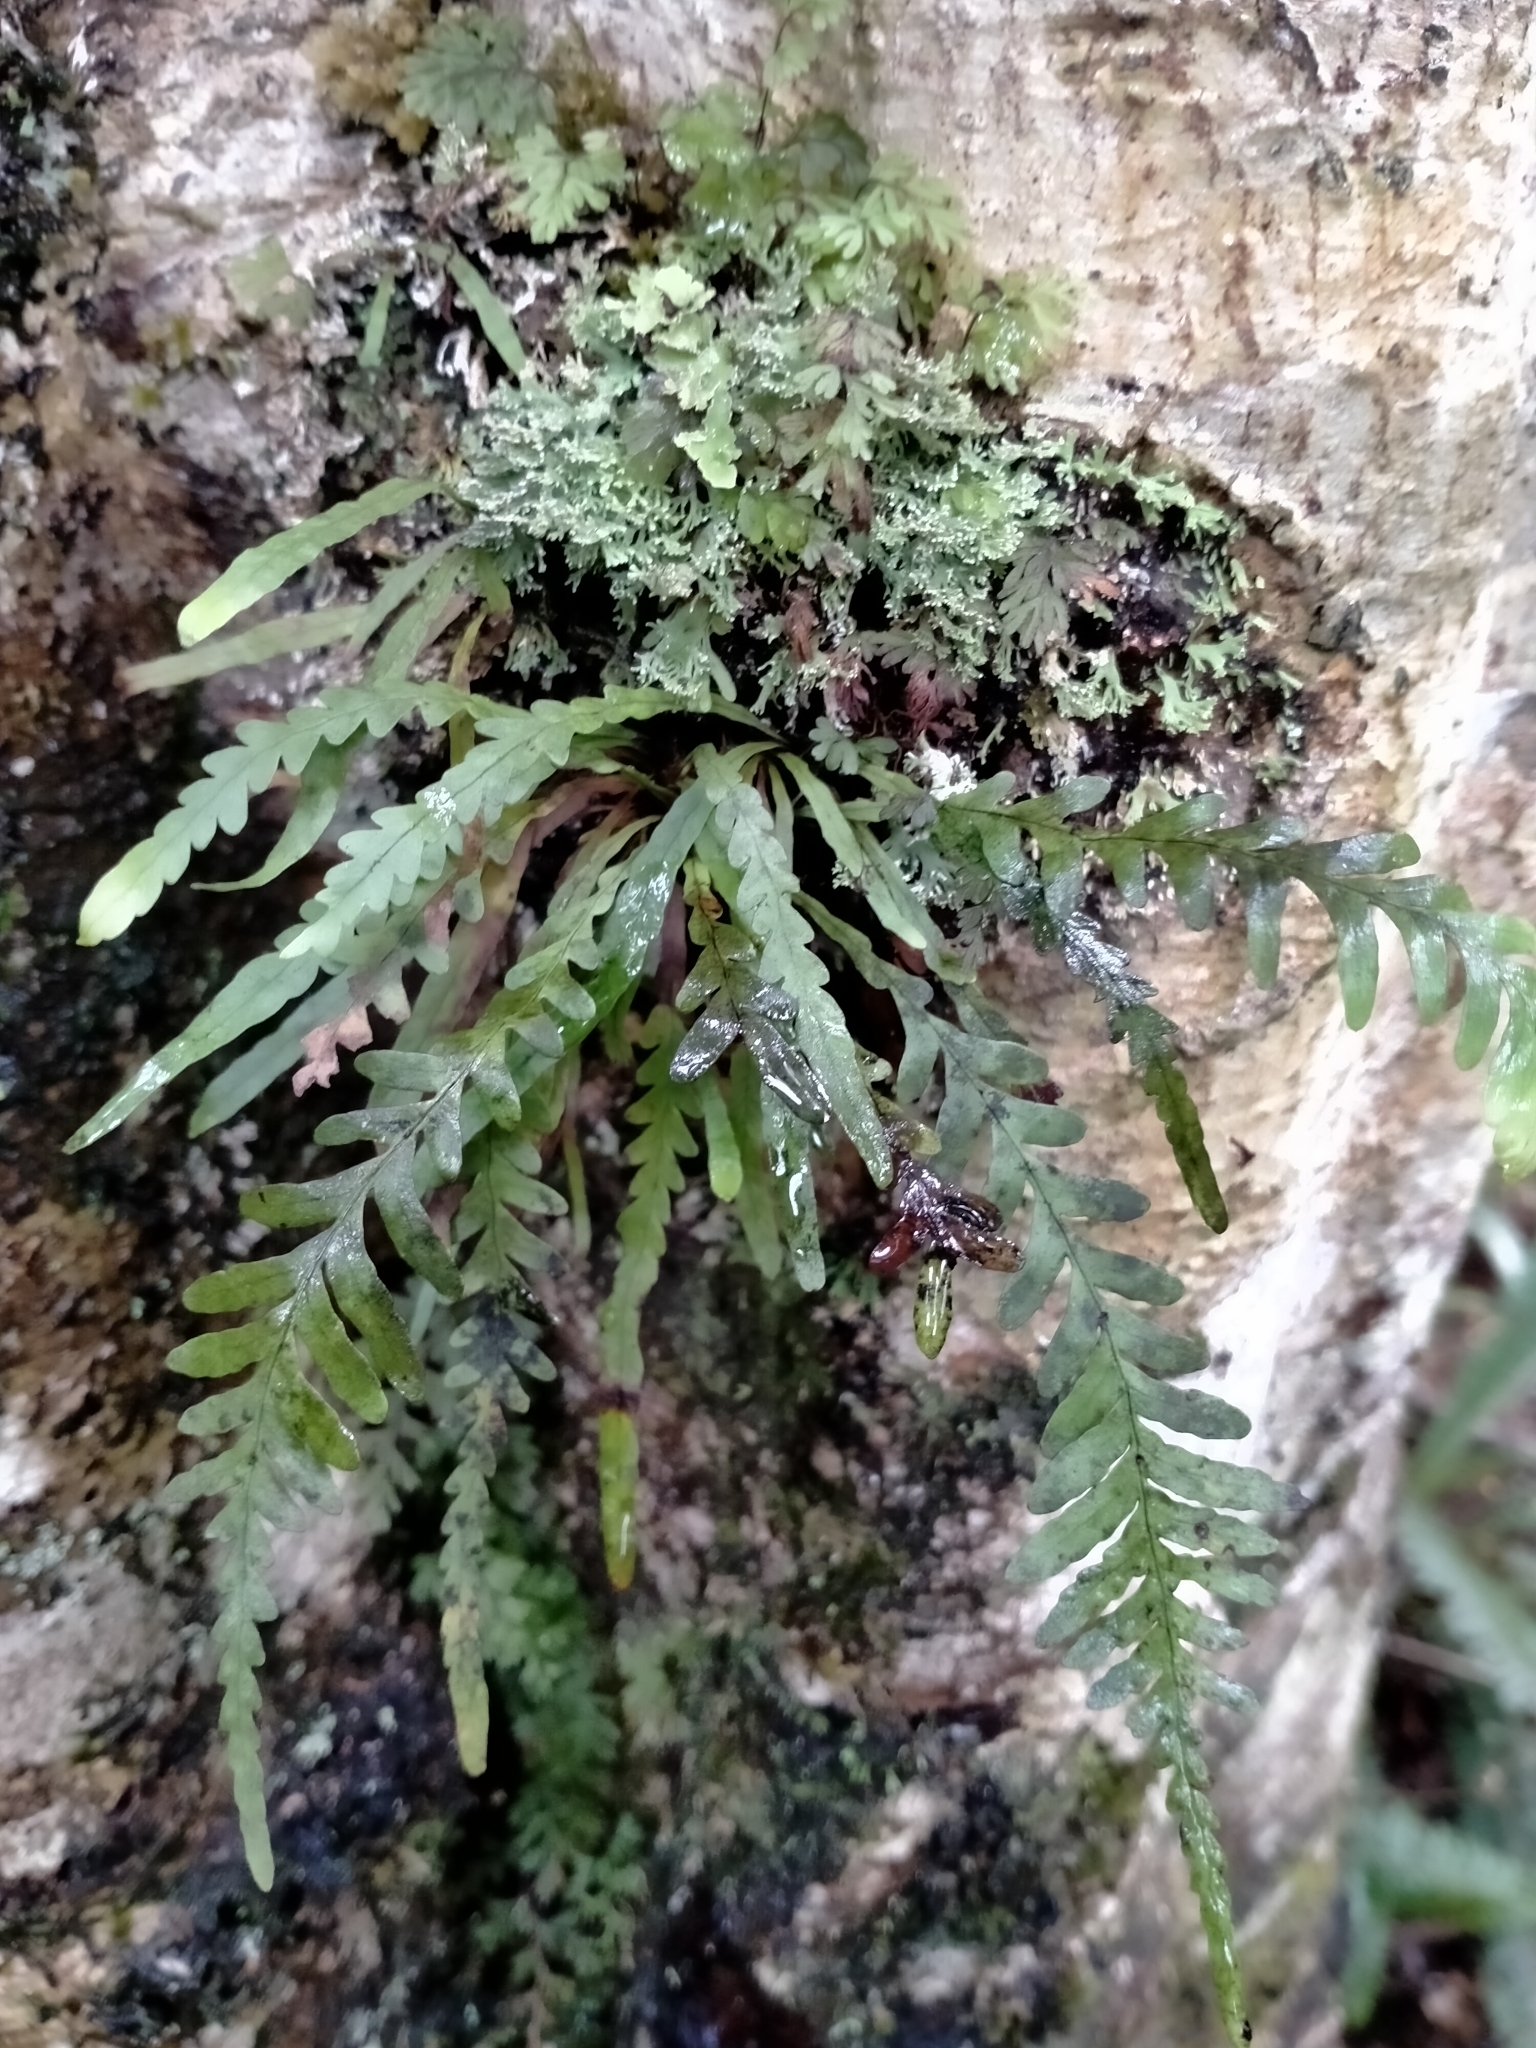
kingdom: Plantae
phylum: Tracheophyta
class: Polypodiopsida
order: Polypodiales
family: Polypodiaceae
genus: Notogrammitis
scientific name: Notogrammitis heterophylla
